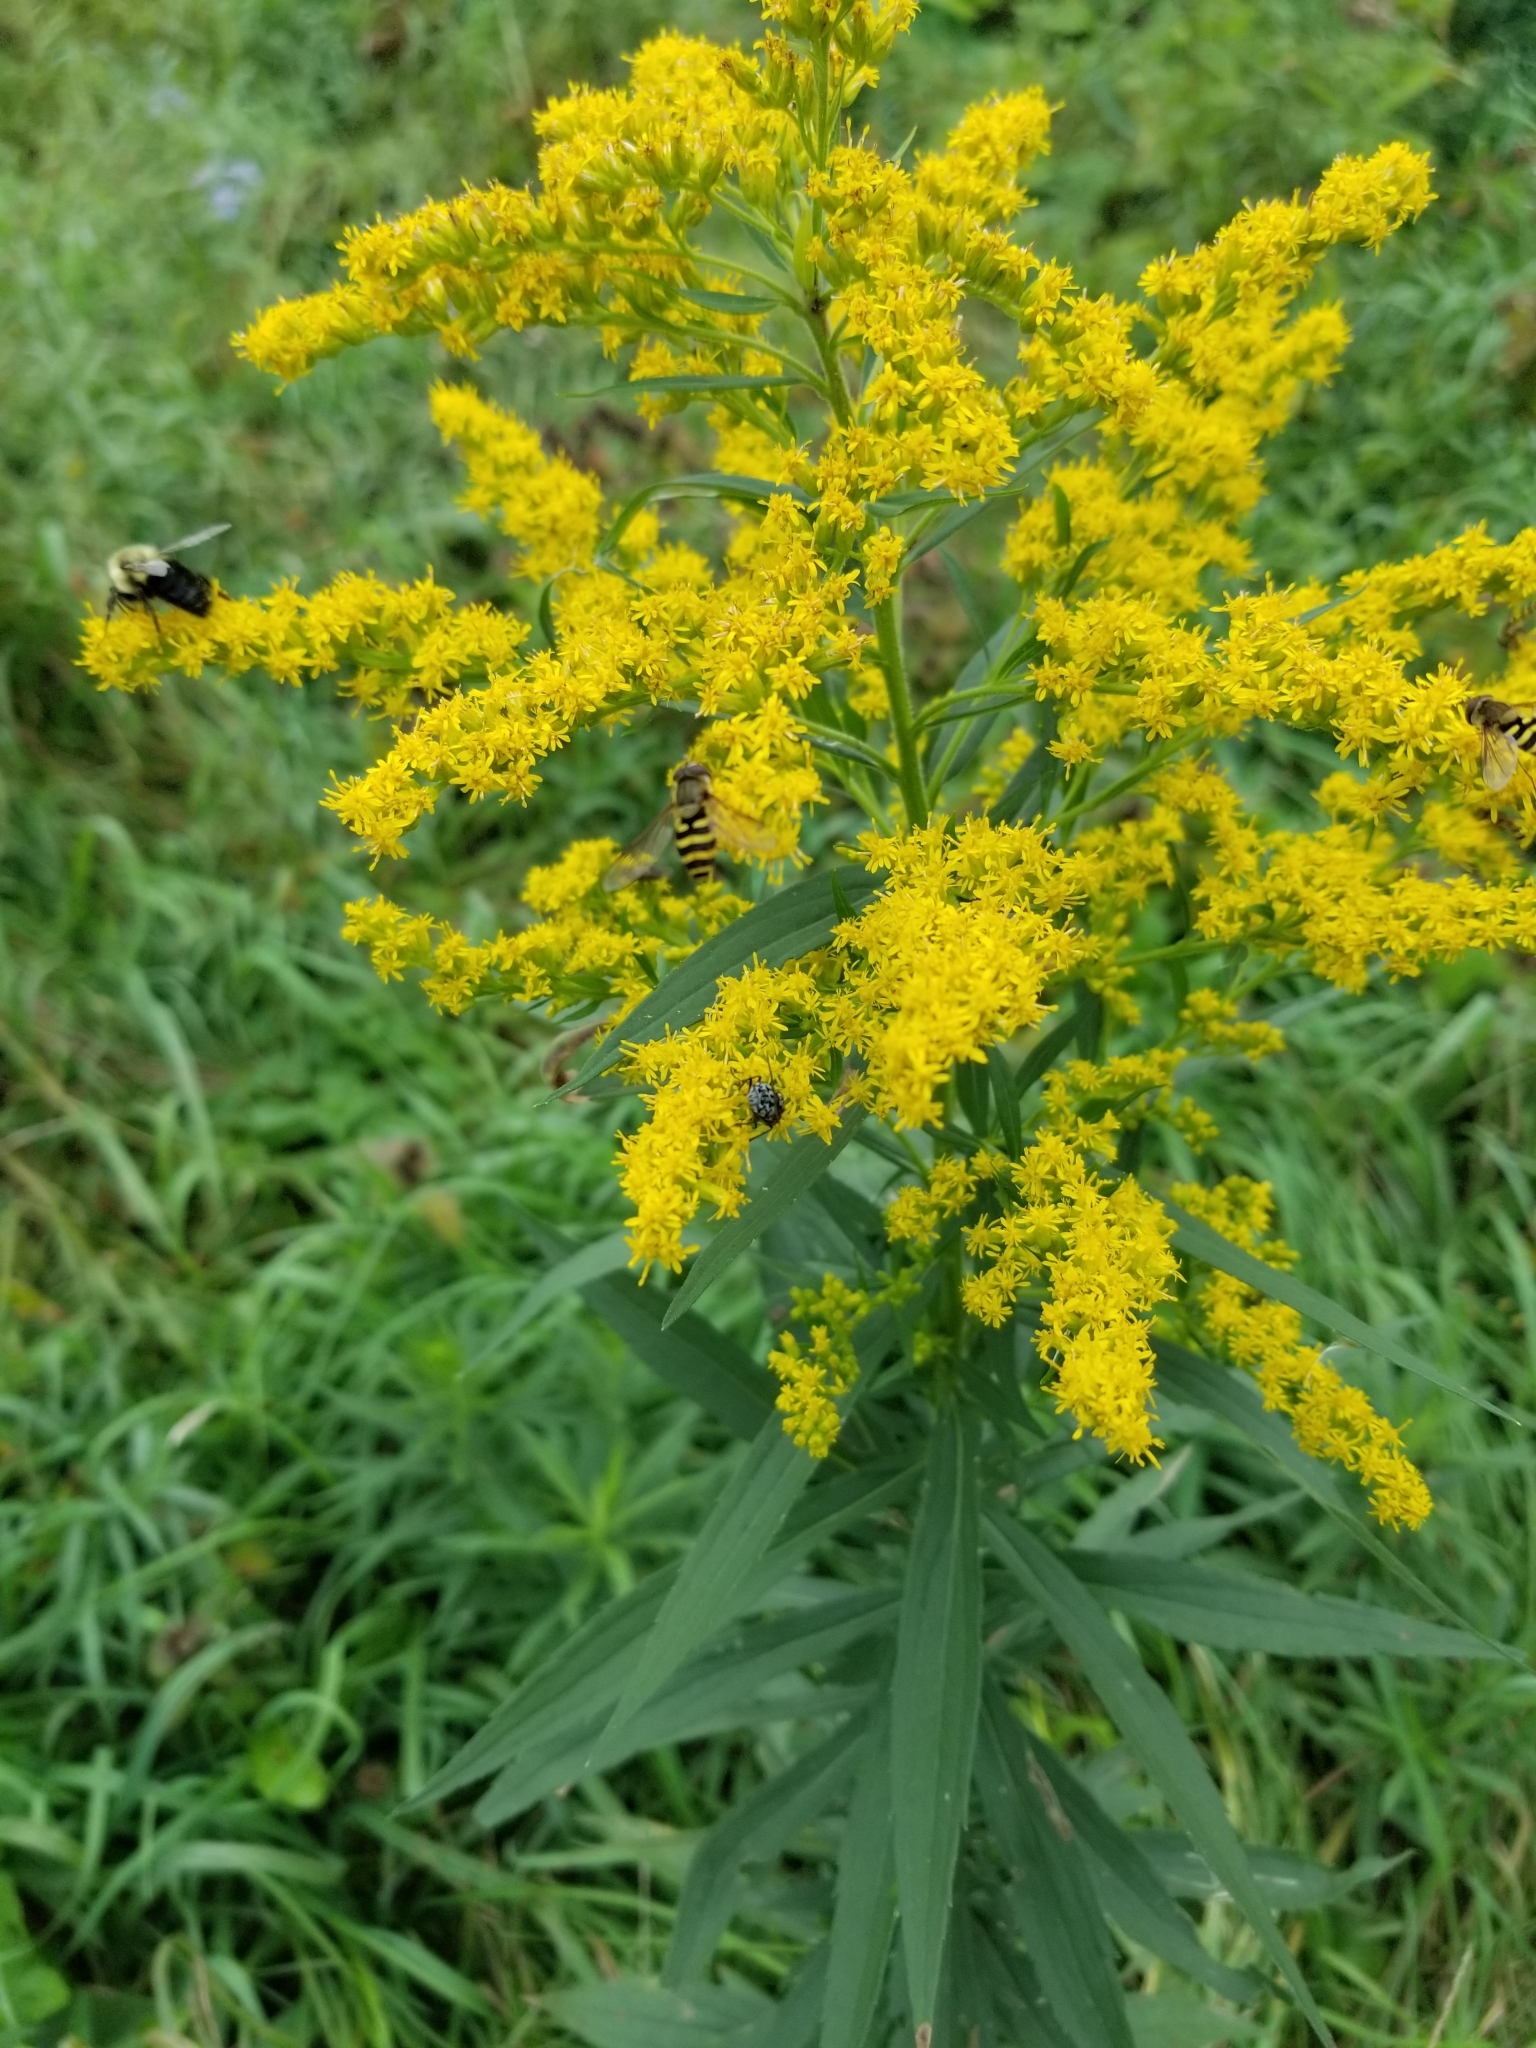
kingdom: Animalia
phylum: Arthropoda
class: Insecta
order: Diptera
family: Syrphidae
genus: Syrphus
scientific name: Syrphus
